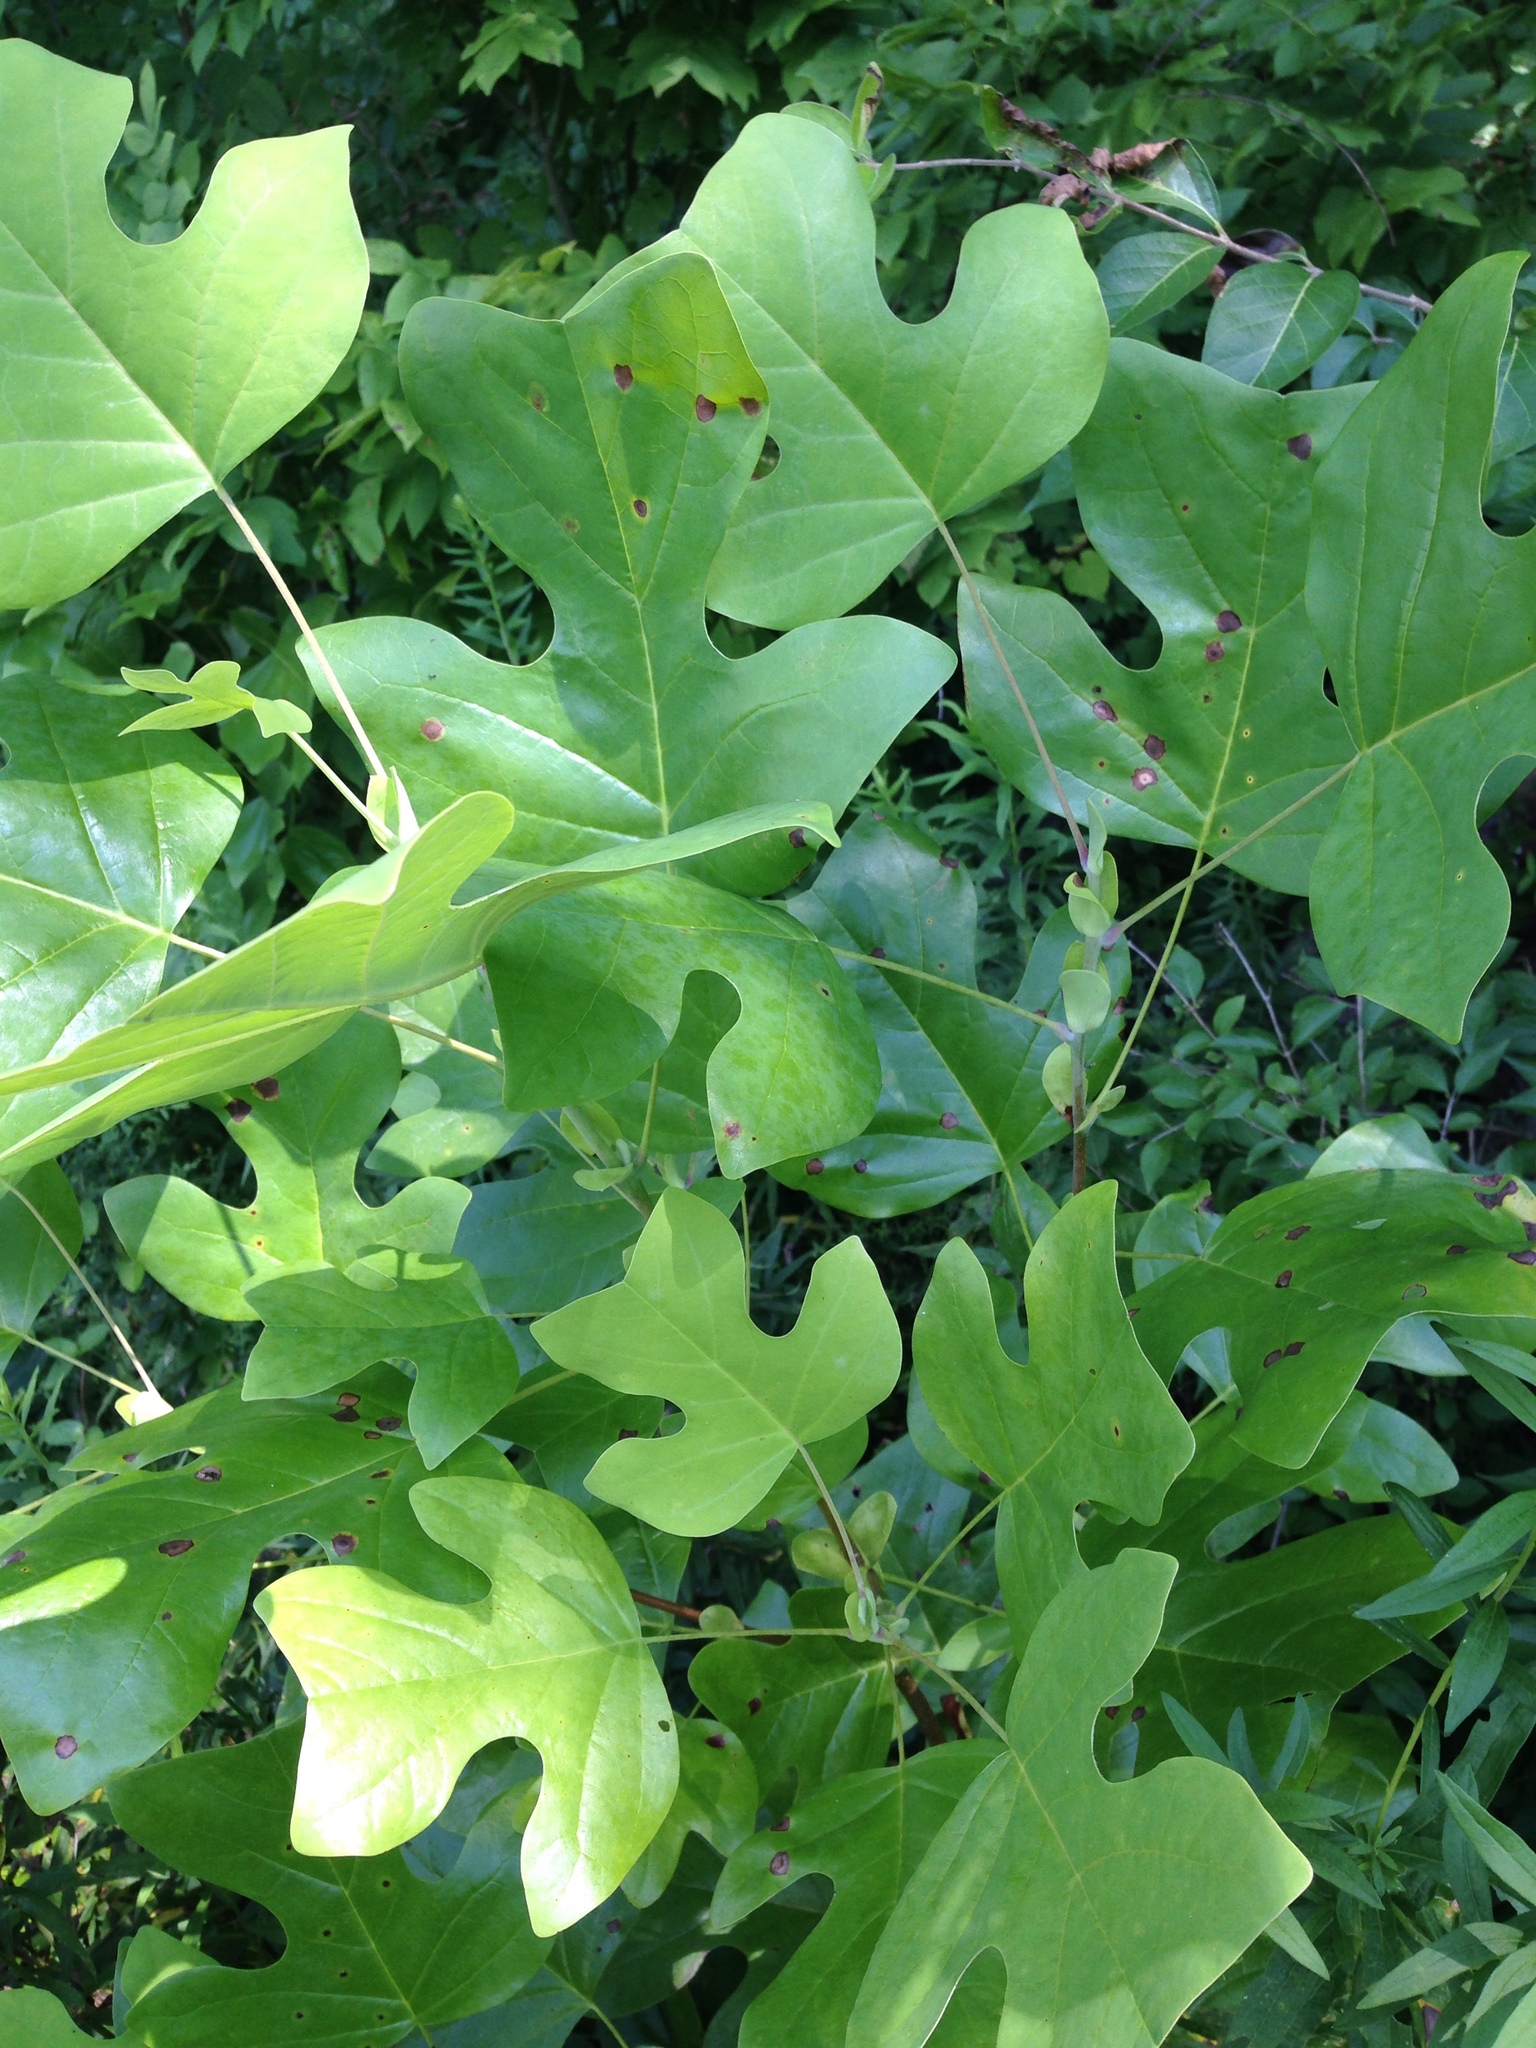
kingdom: Plantae
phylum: Tracheophyta
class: Magnoliopsida
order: Magnoliales
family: Magnoliaceae
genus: Liriodendron
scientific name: Liriodendron tulipifera
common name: Tulip tree
